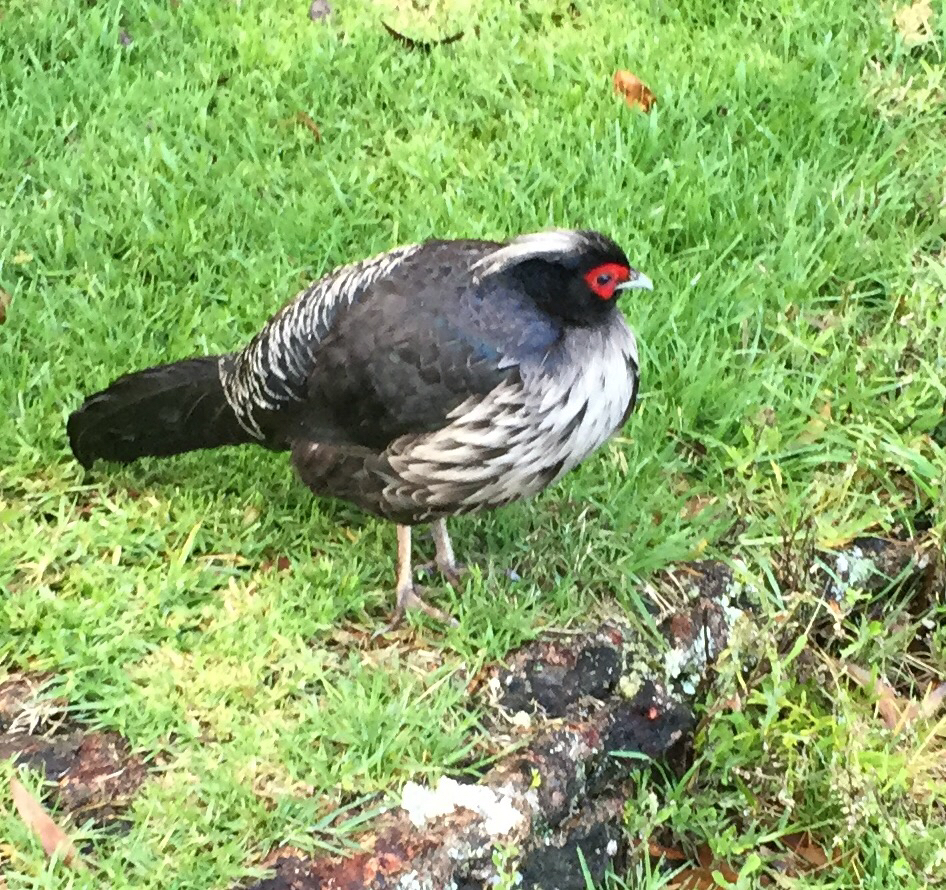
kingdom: Animalia
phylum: Chordata
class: Aves
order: Galliformes
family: Phasianidae
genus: Lophura
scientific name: Lophura leucomelanos
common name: Kalij pheasant
